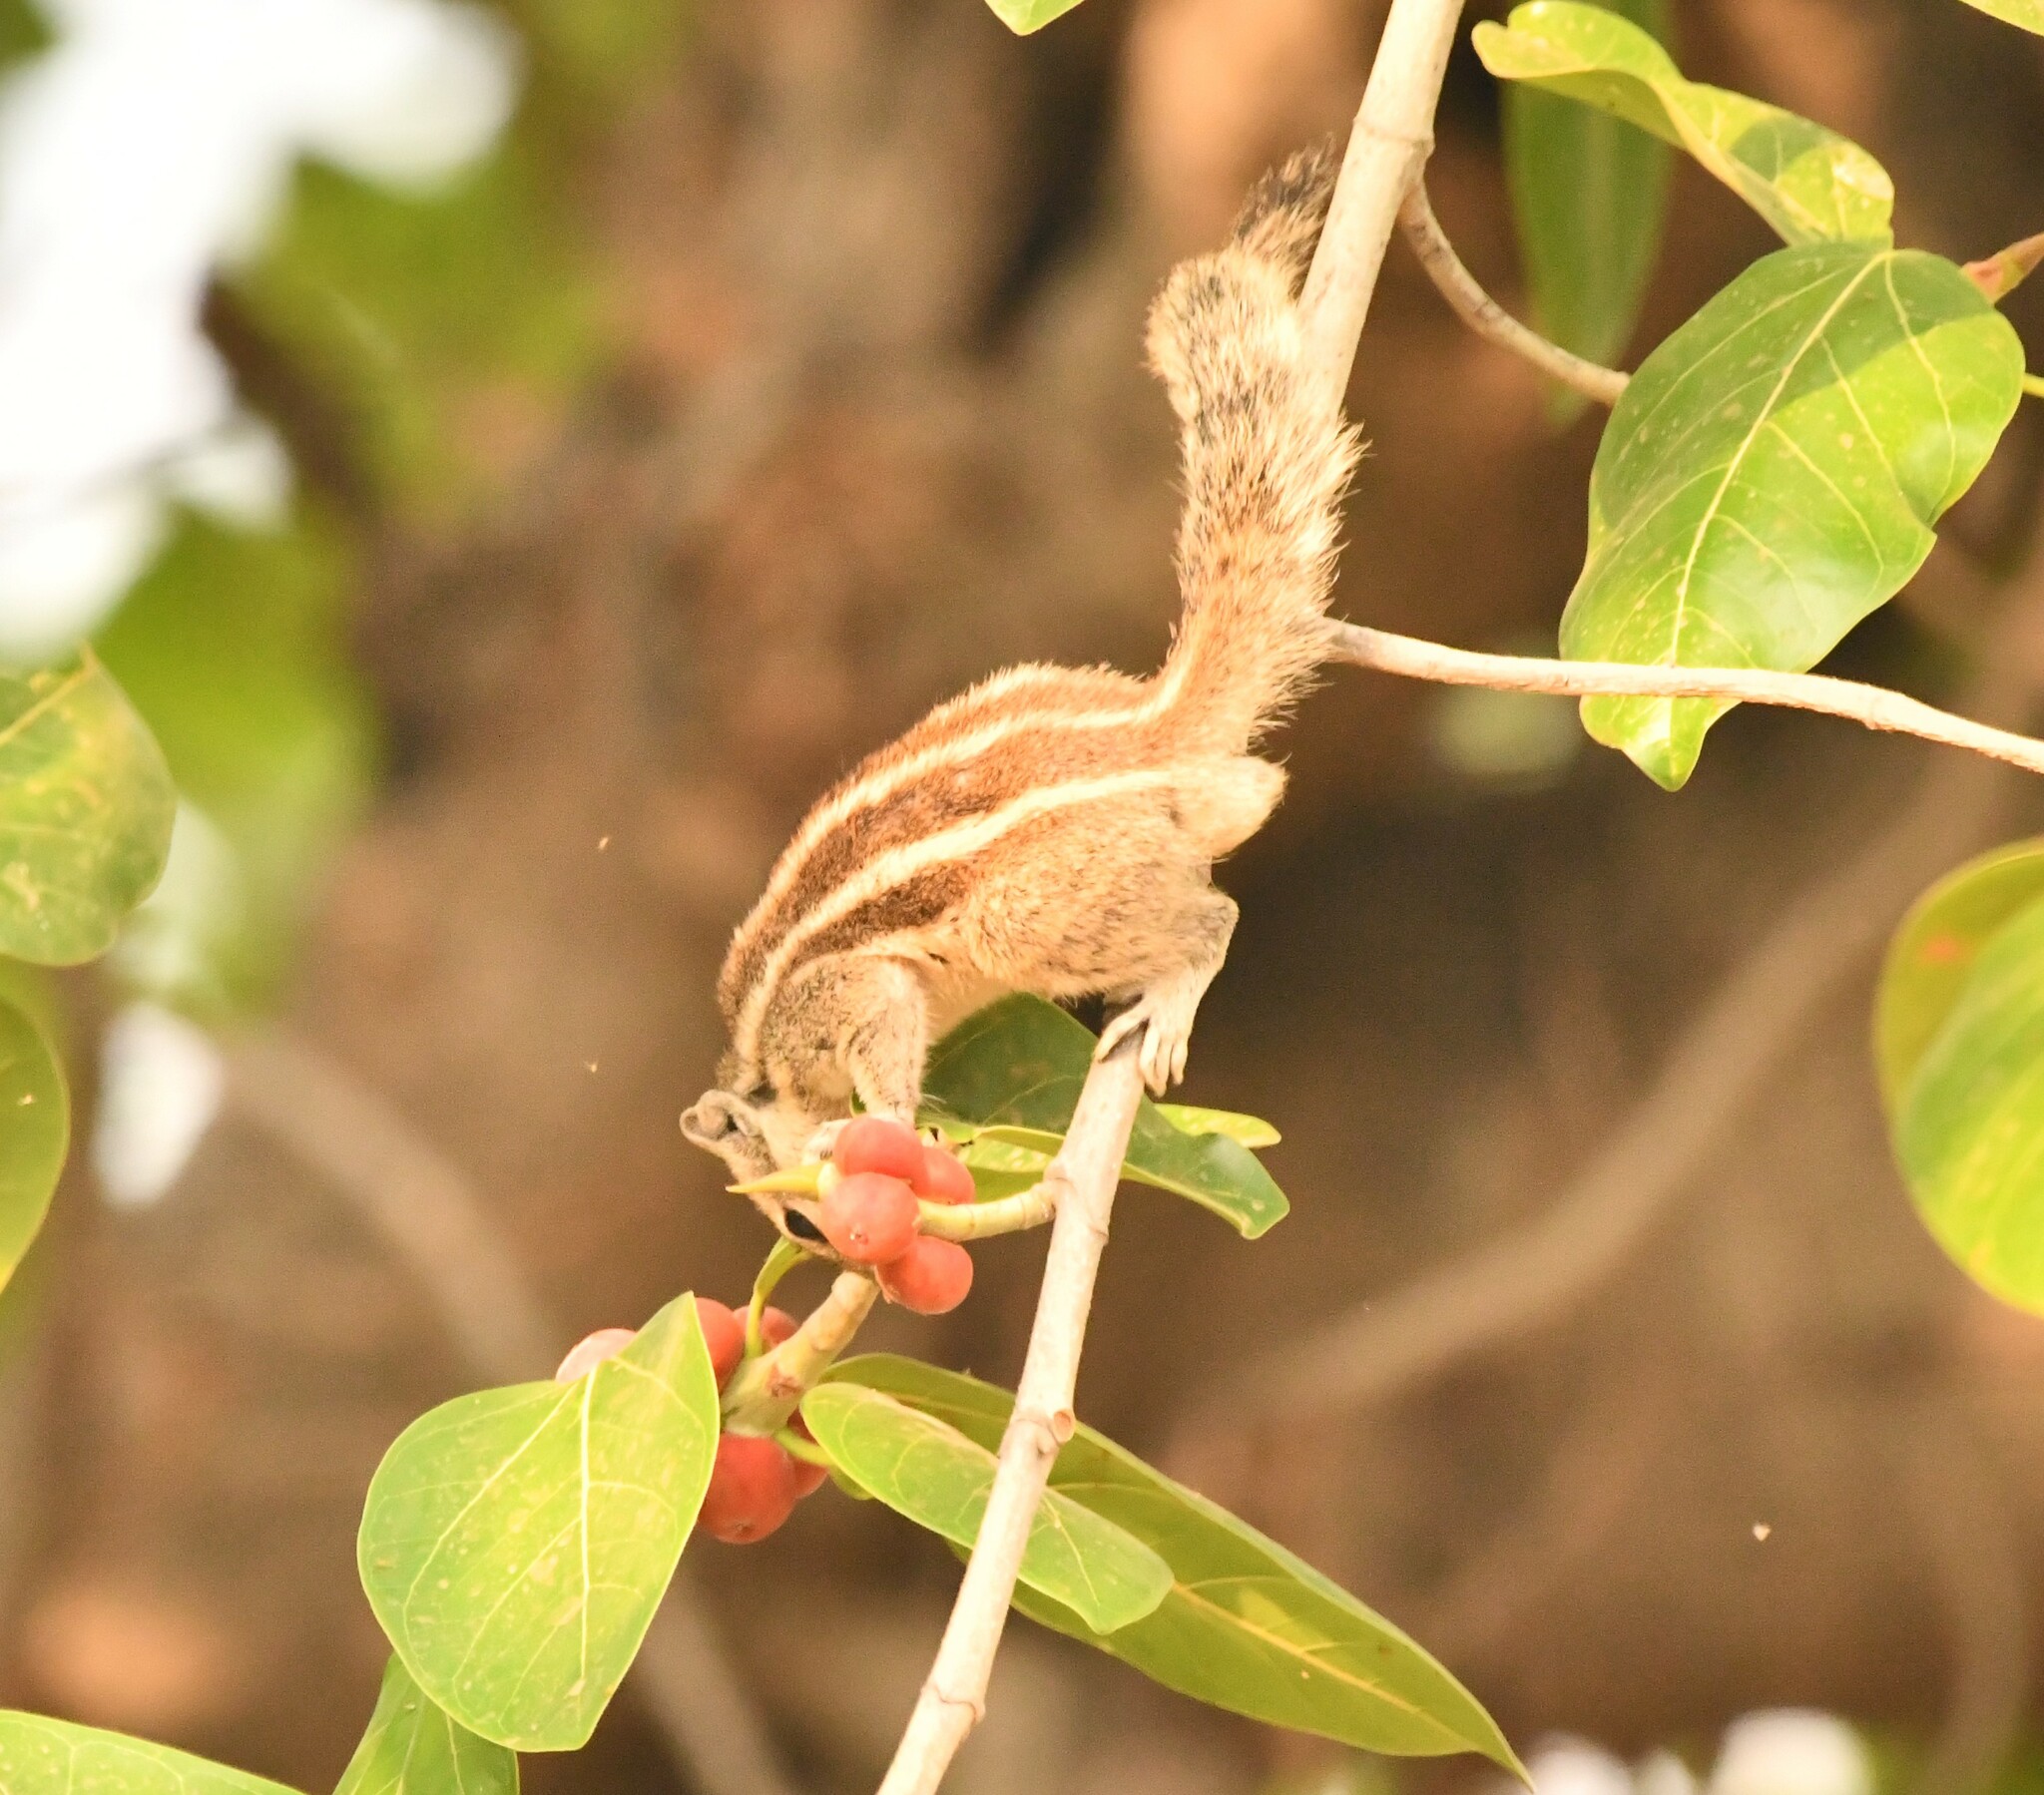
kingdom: Animalia
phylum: Chordata
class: Mammalia
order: Rodentia
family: Sciuridae
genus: Funambulus
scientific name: Funambulus pennantii
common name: Northern palm squirrel
